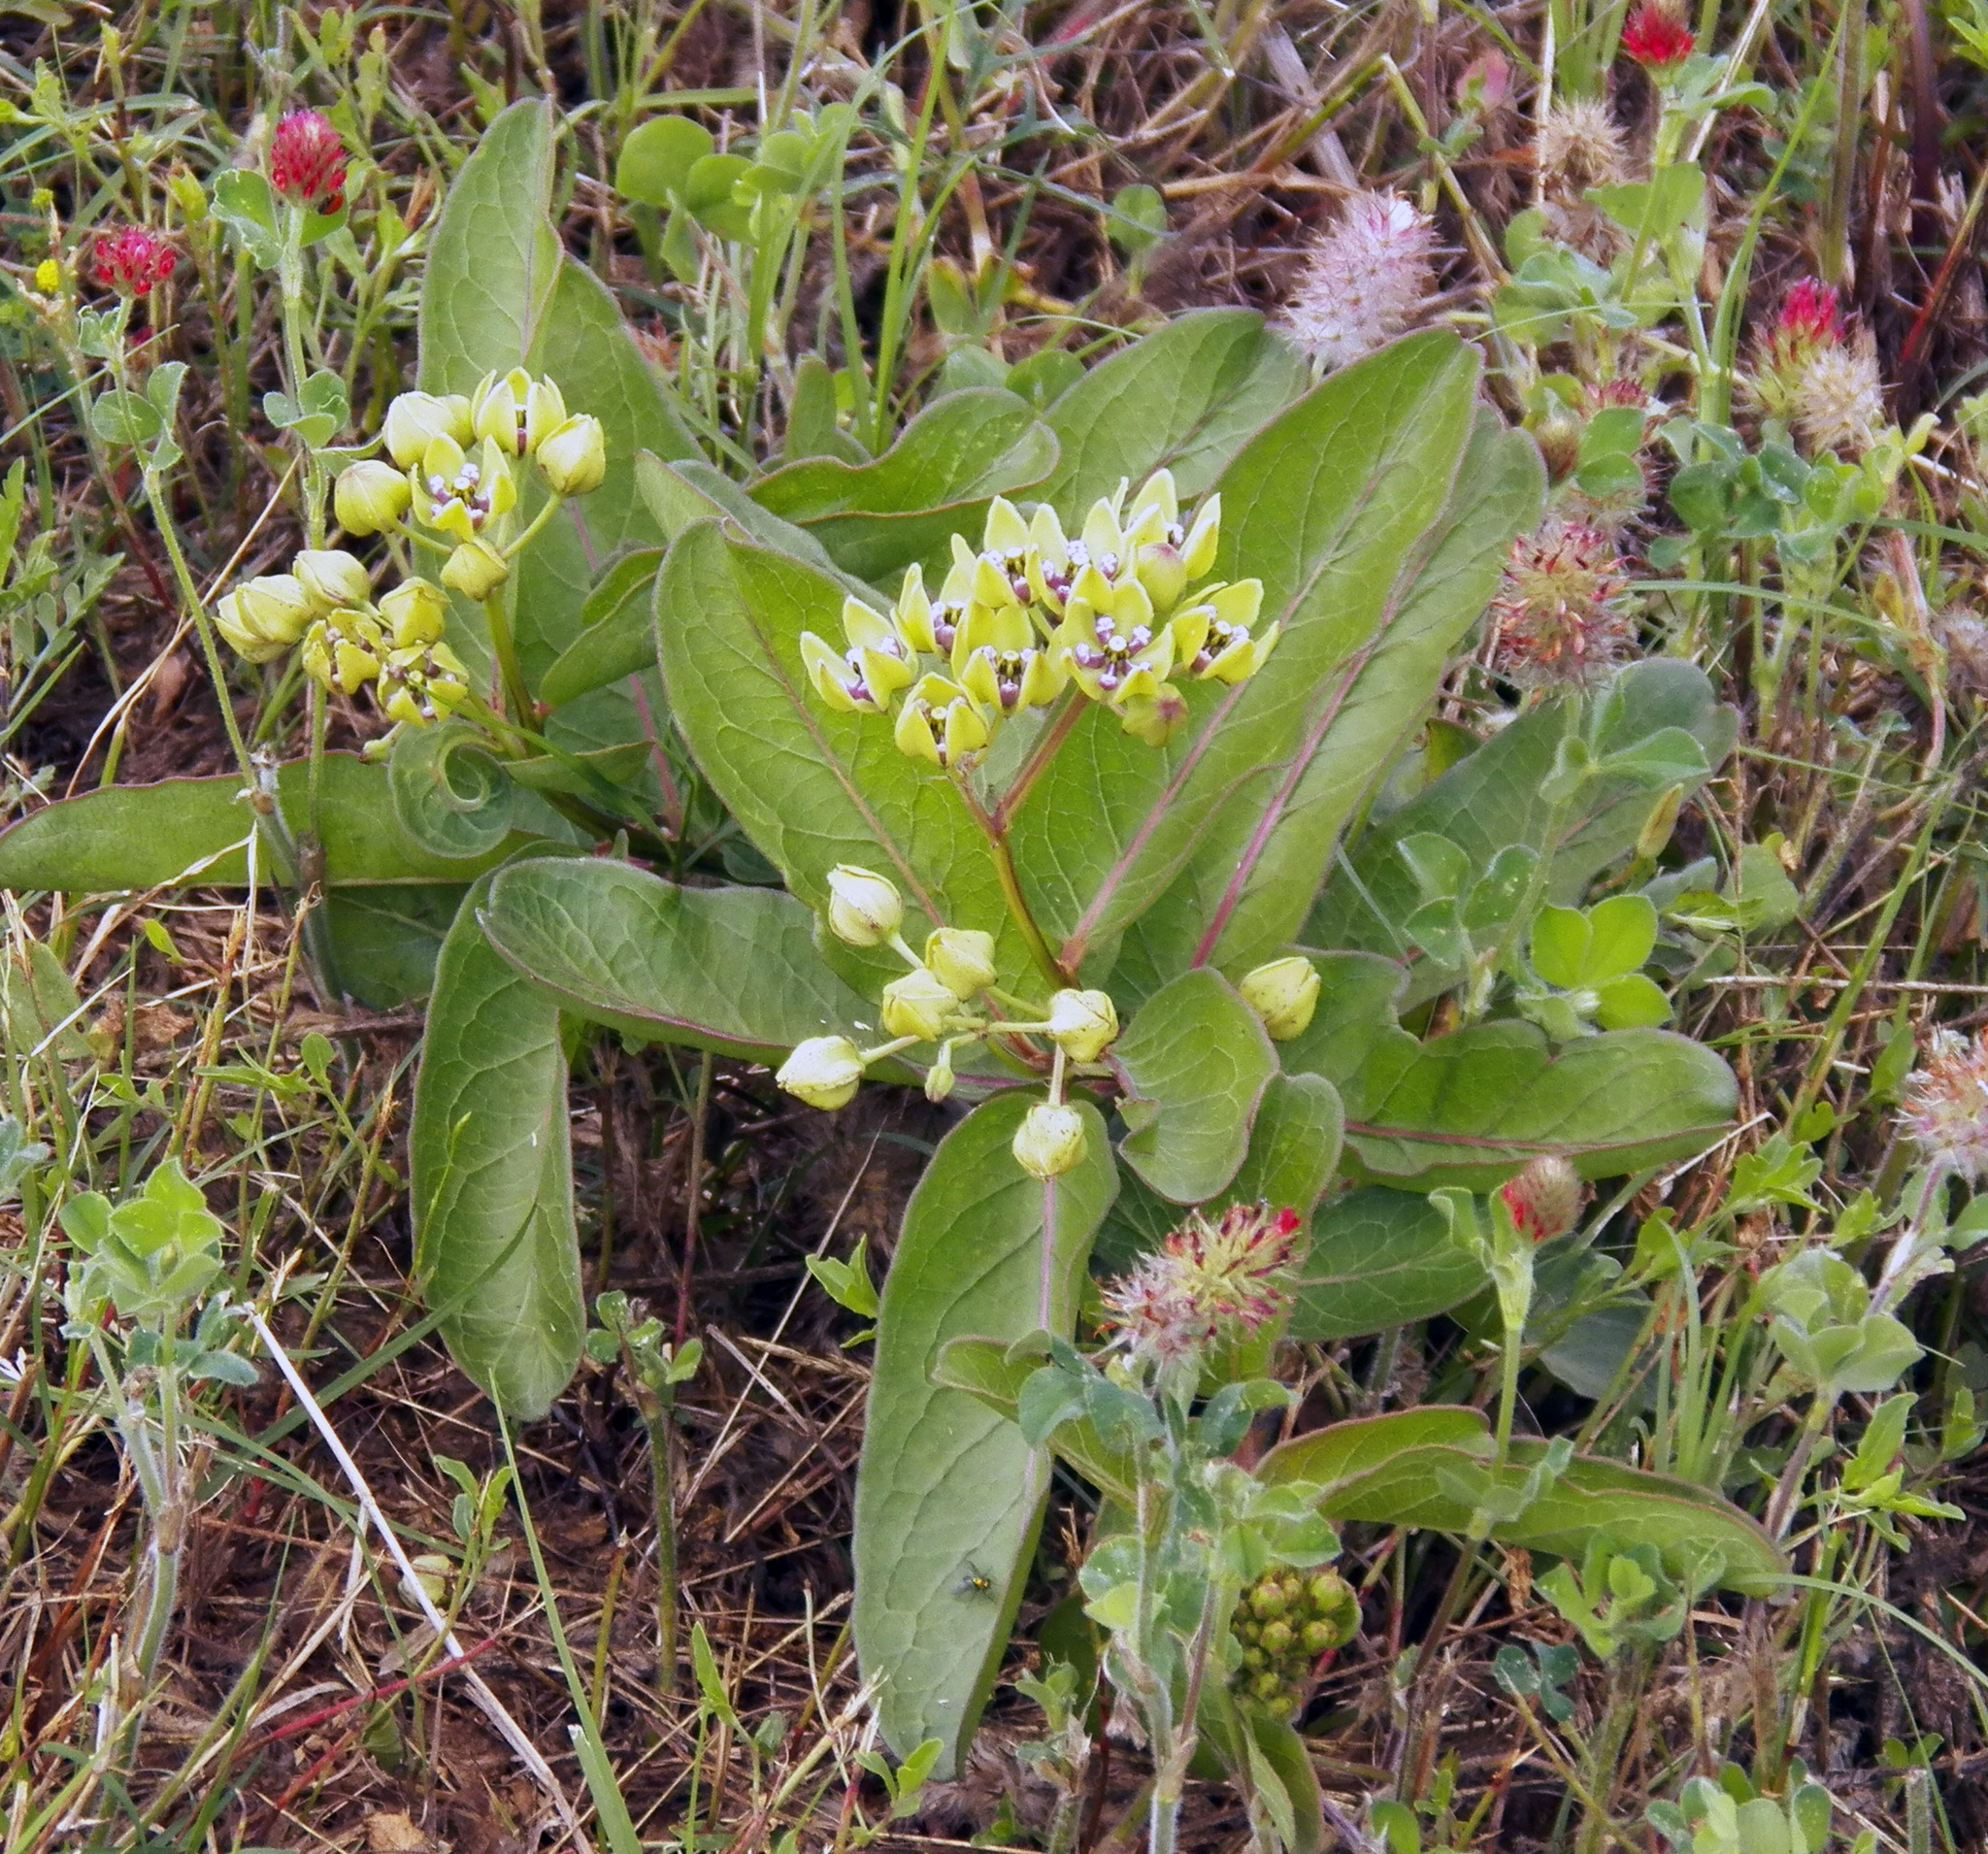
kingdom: Plantae
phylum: Tracheophyta
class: Magnoliopsida
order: Gentianales
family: Apocynaceae
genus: Asclepias
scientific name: Asclepias viridis
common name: Antelope-horns
